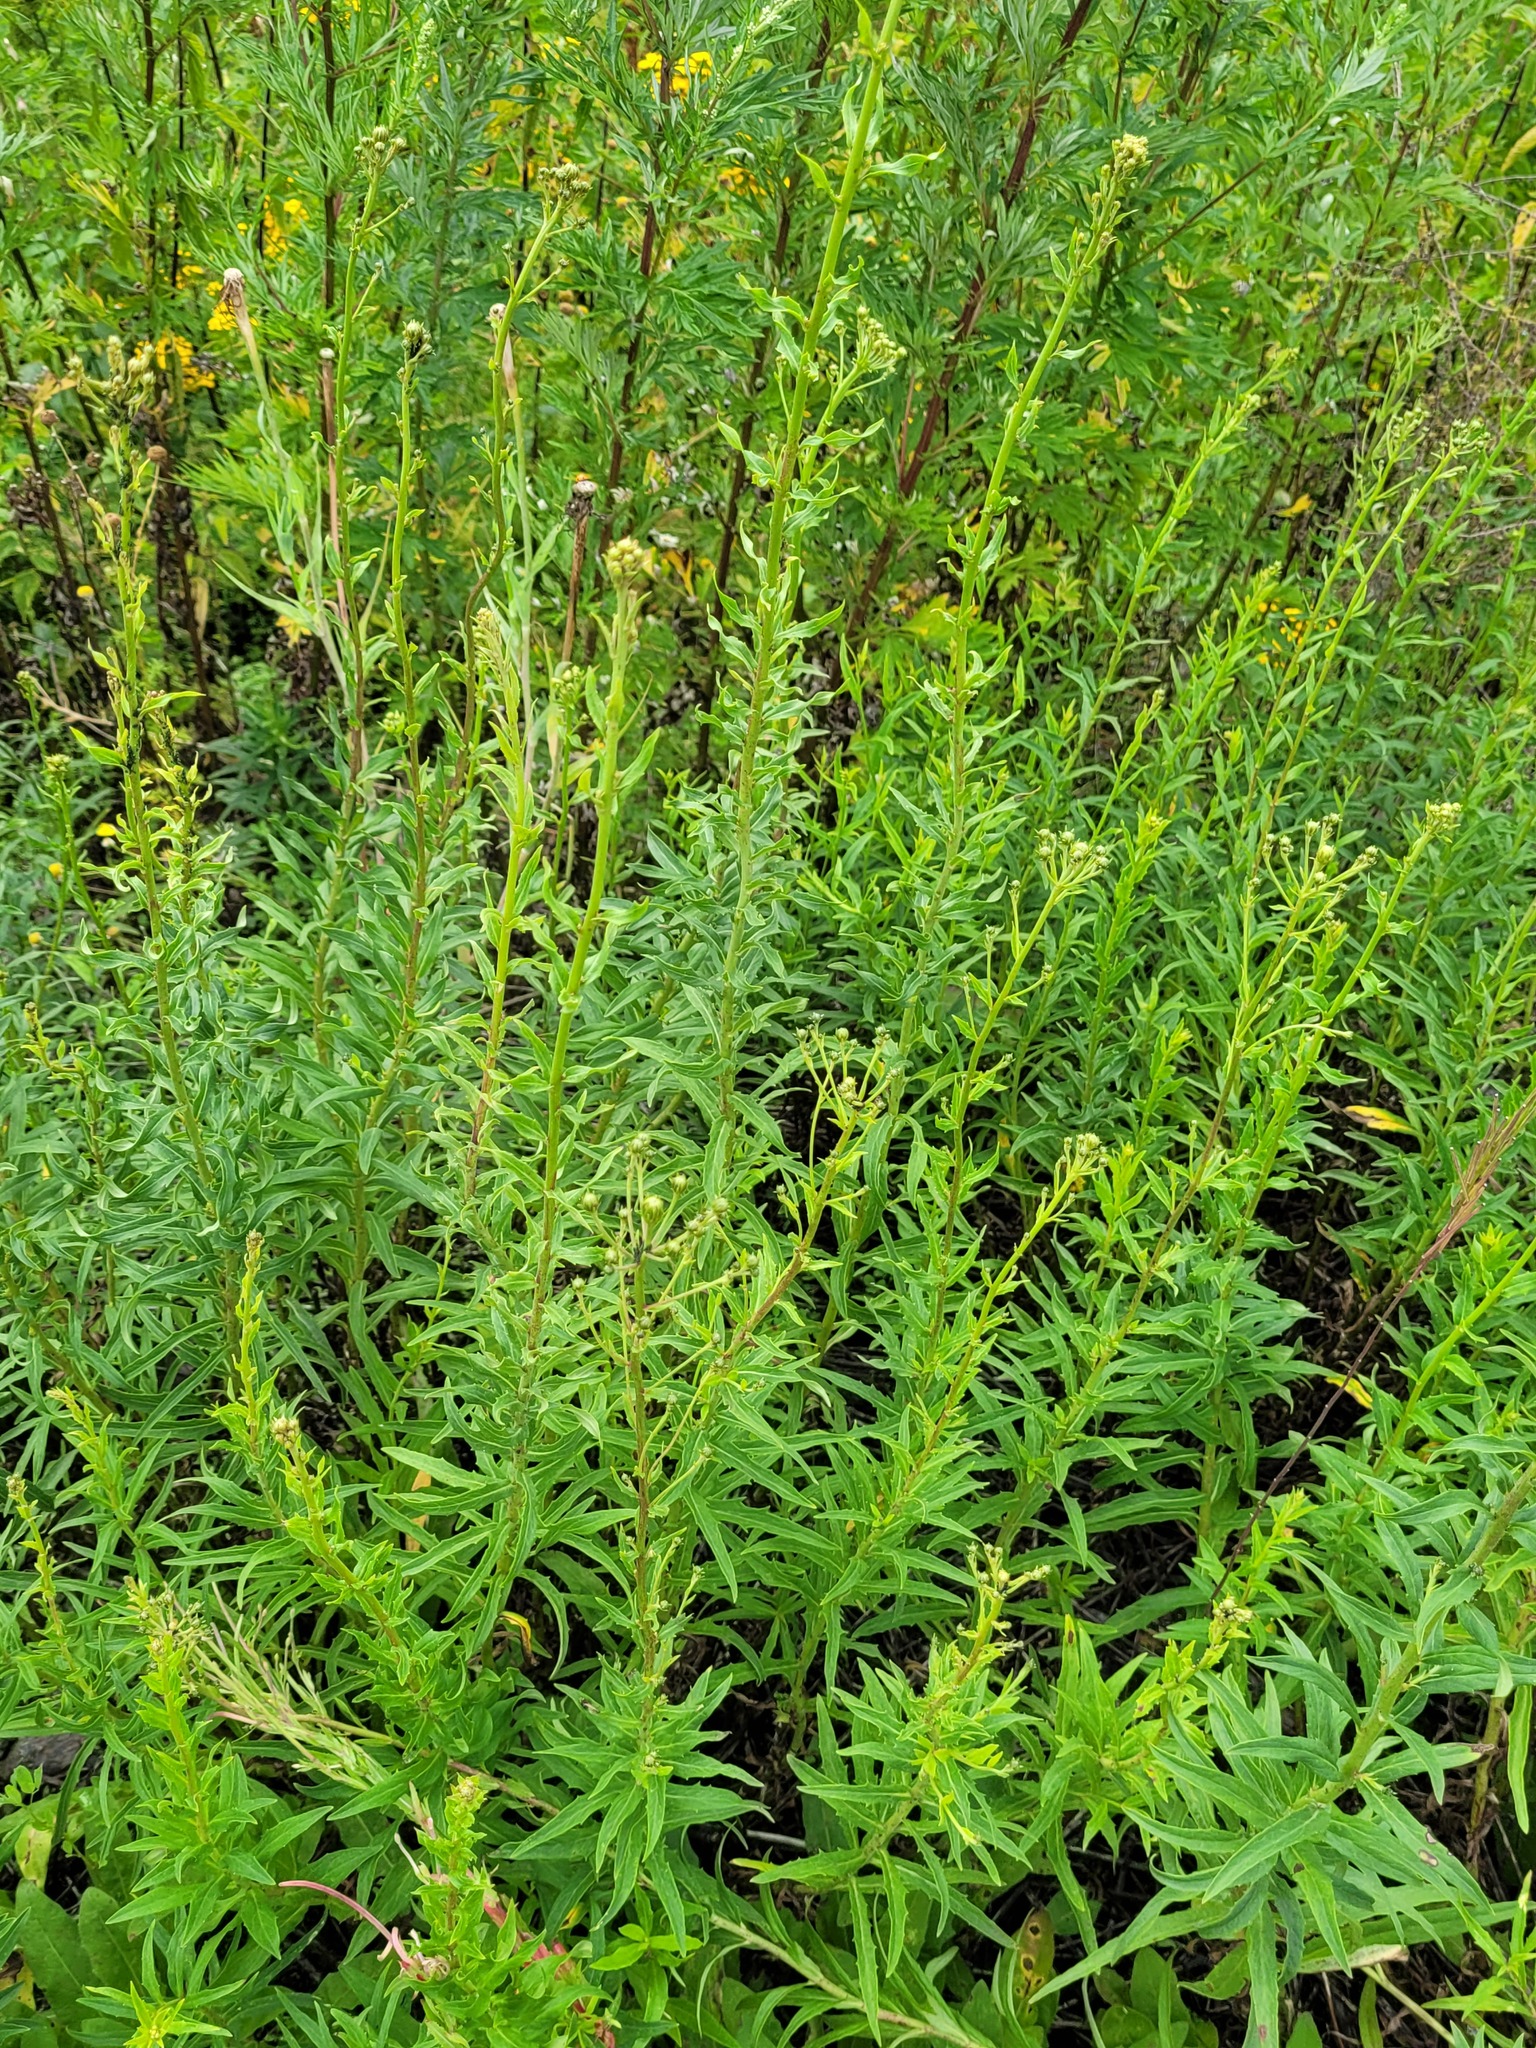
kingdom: Plantae
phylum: Tracheophyta
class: Magnoliopsida
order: Asterales
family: Asteraceae
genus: Hieracium
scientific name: Hieracium umbellatum
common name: Northern hawkweed
